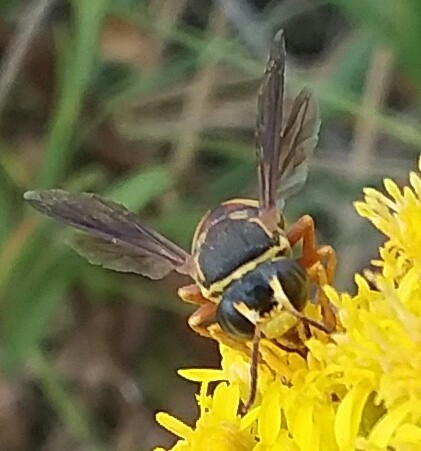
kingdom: Animalia
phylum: Arthropoda
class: Insecta
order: Hymenoptera
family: Crabronidae
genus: Bicyrtes
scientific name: Bicyrtes
